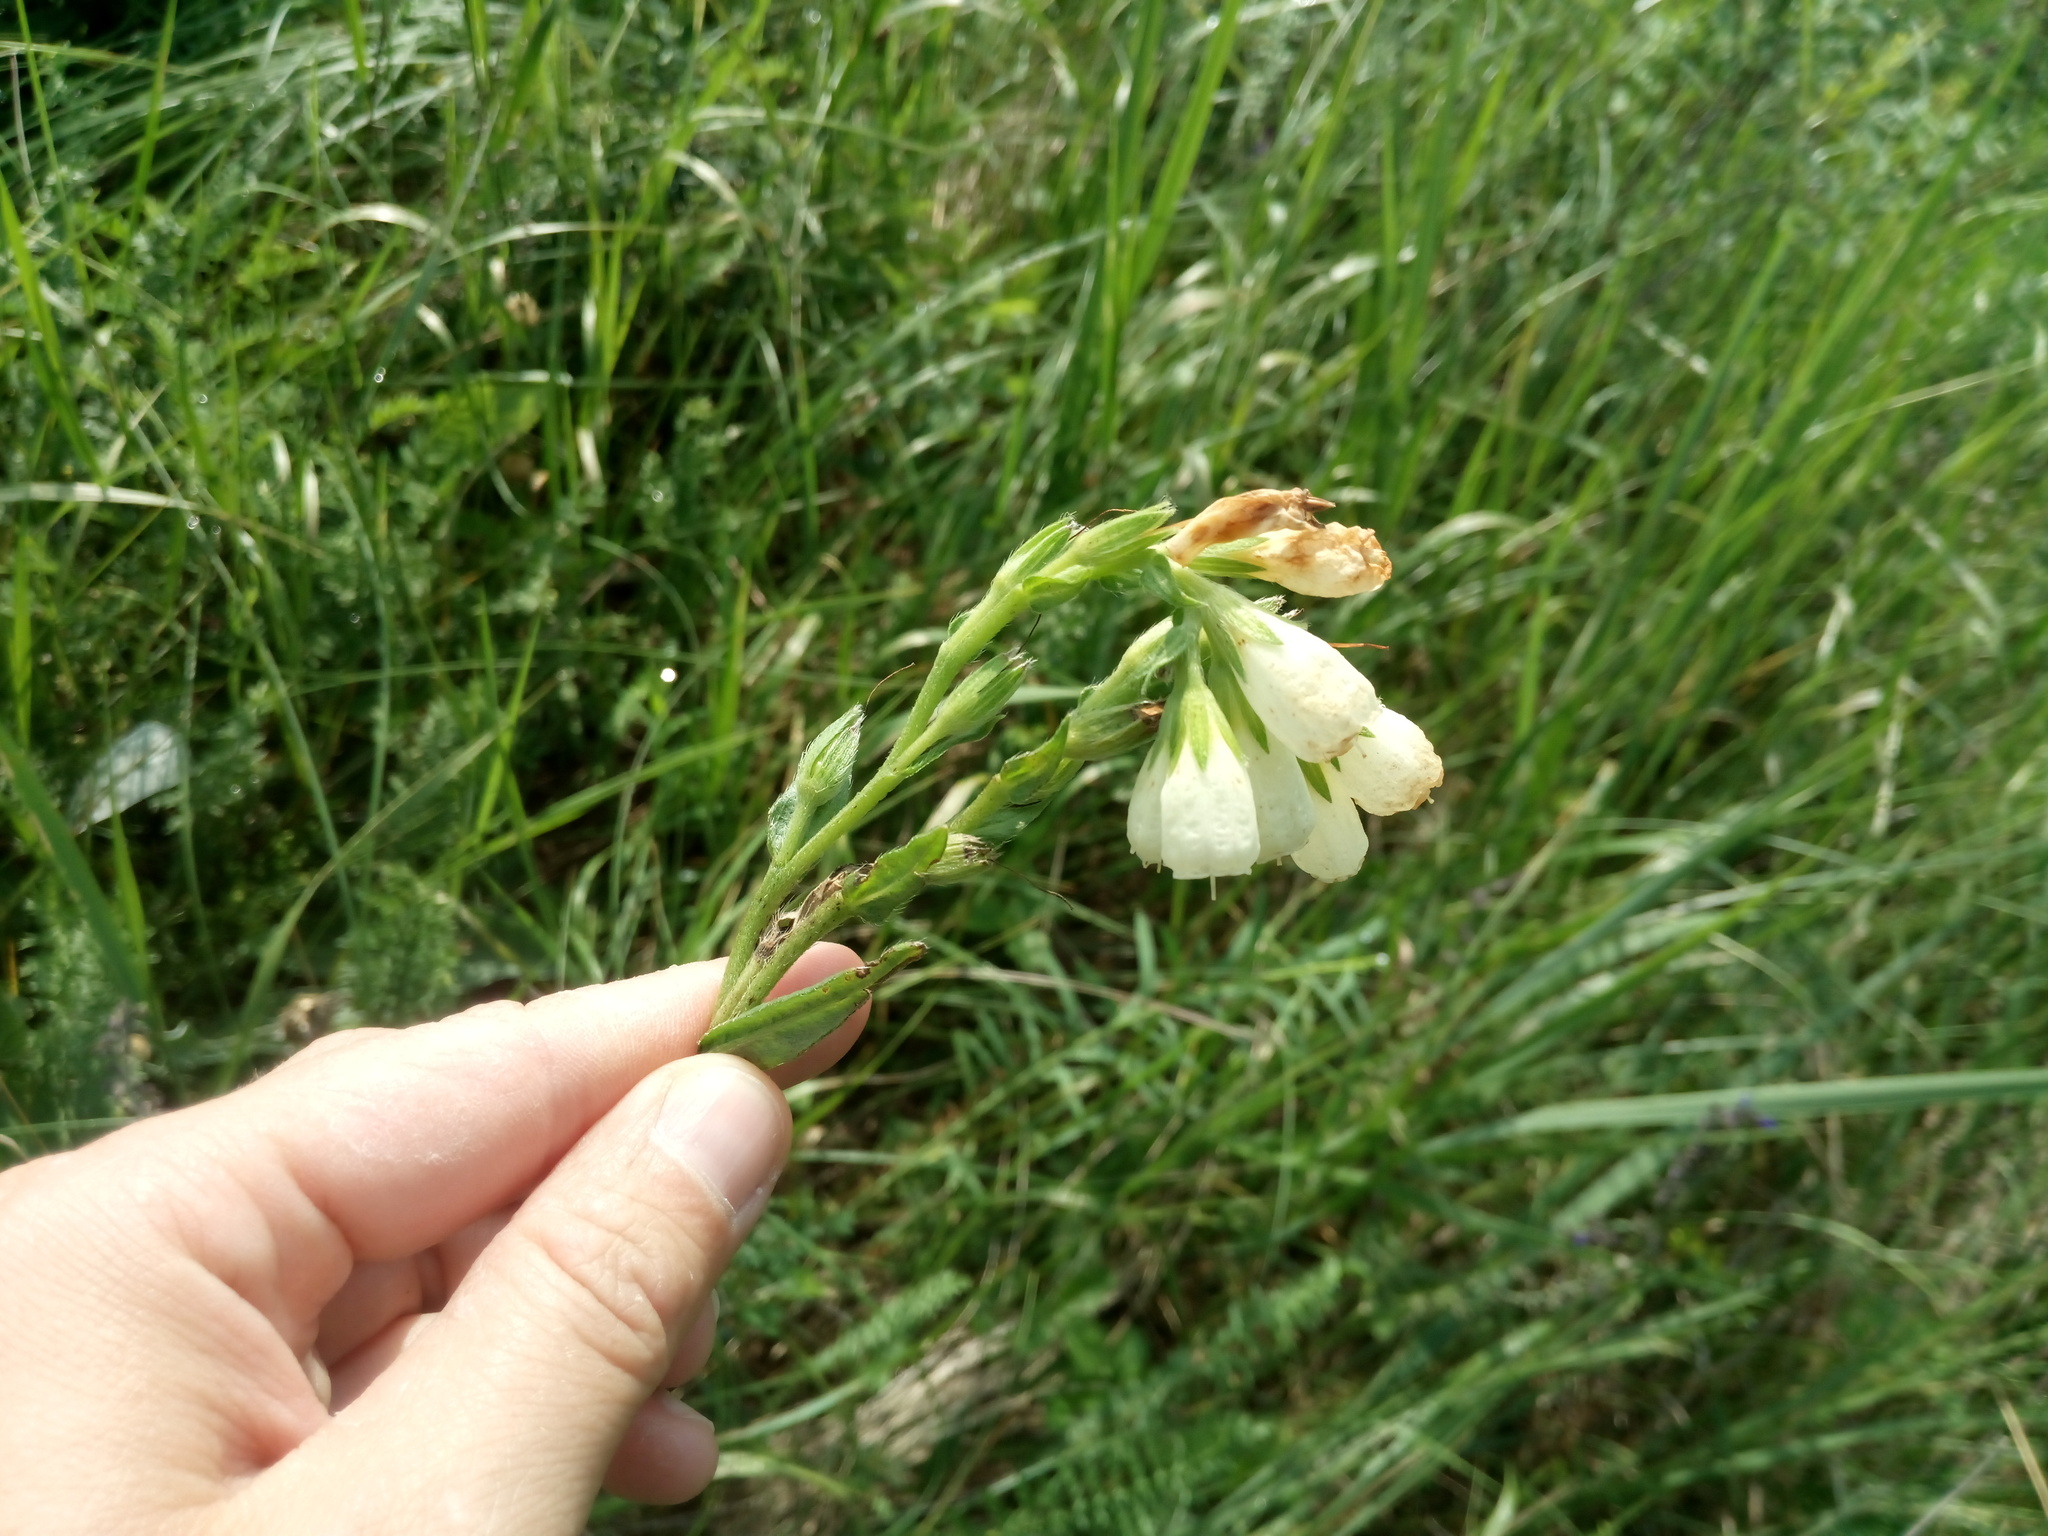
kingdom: Plantae
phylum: Tracheophyta
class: Magnoliopsida
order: Boraginales
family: Boraginaceae
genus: Onosma
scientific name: Onosma simplicissima
